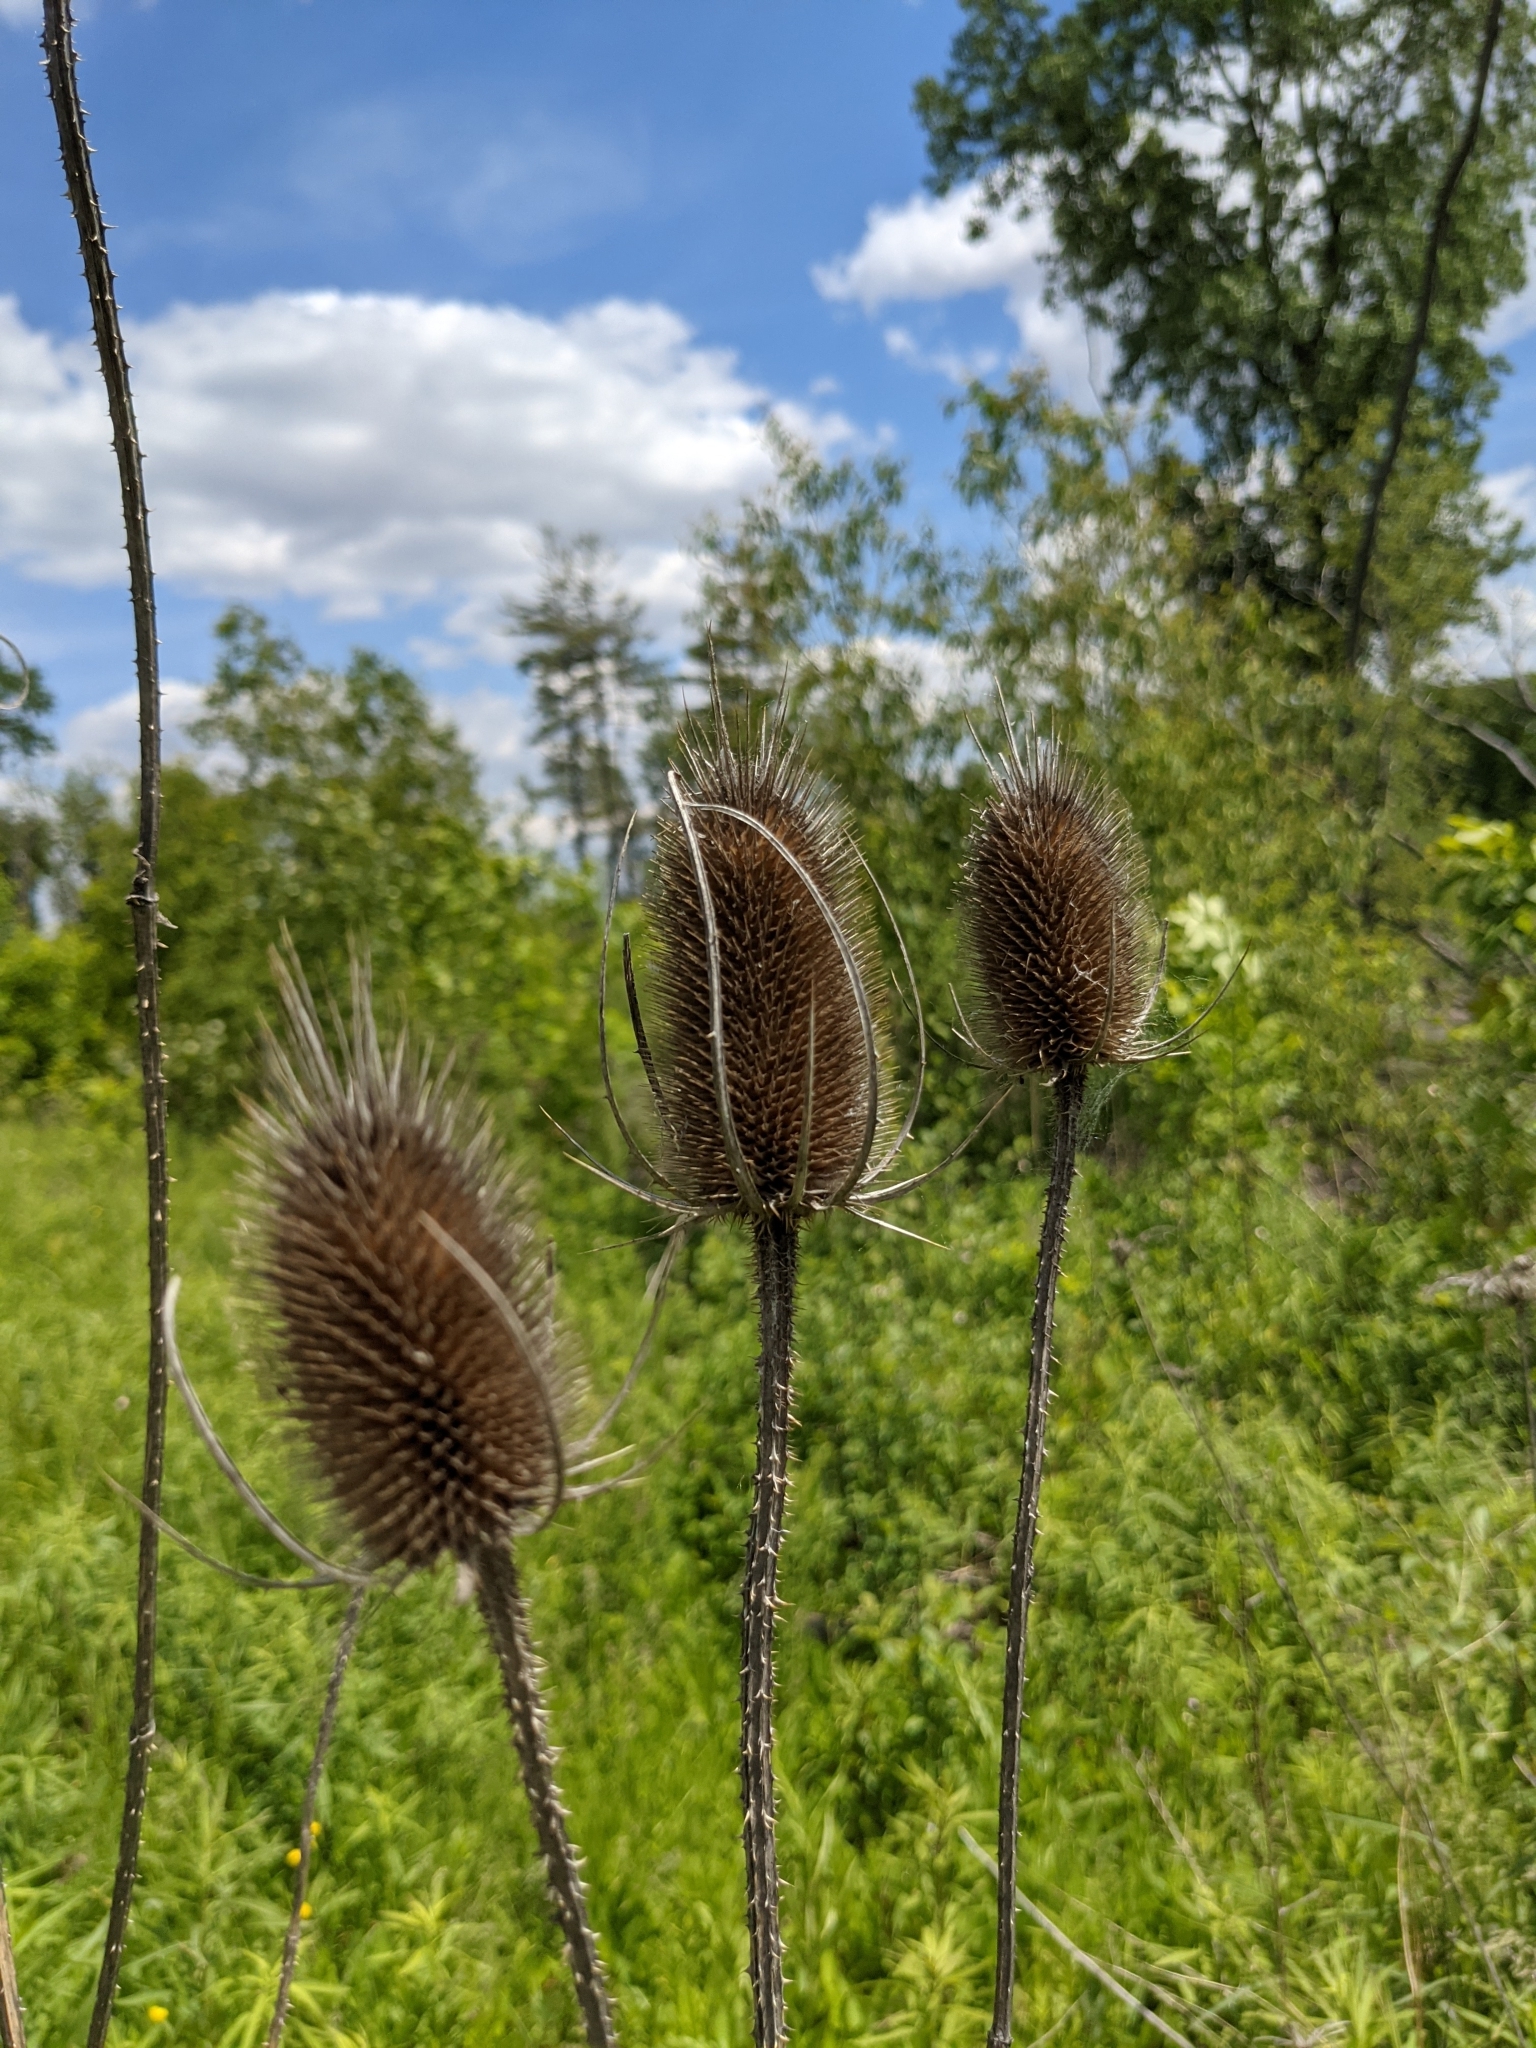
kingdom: Plantae
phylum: Tracheophyta
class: Magnoliopsida
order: Dipsacales
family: Caprifoliaceae
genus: Dipsacus
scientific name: Dipsacus fullonum
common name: Teasel
